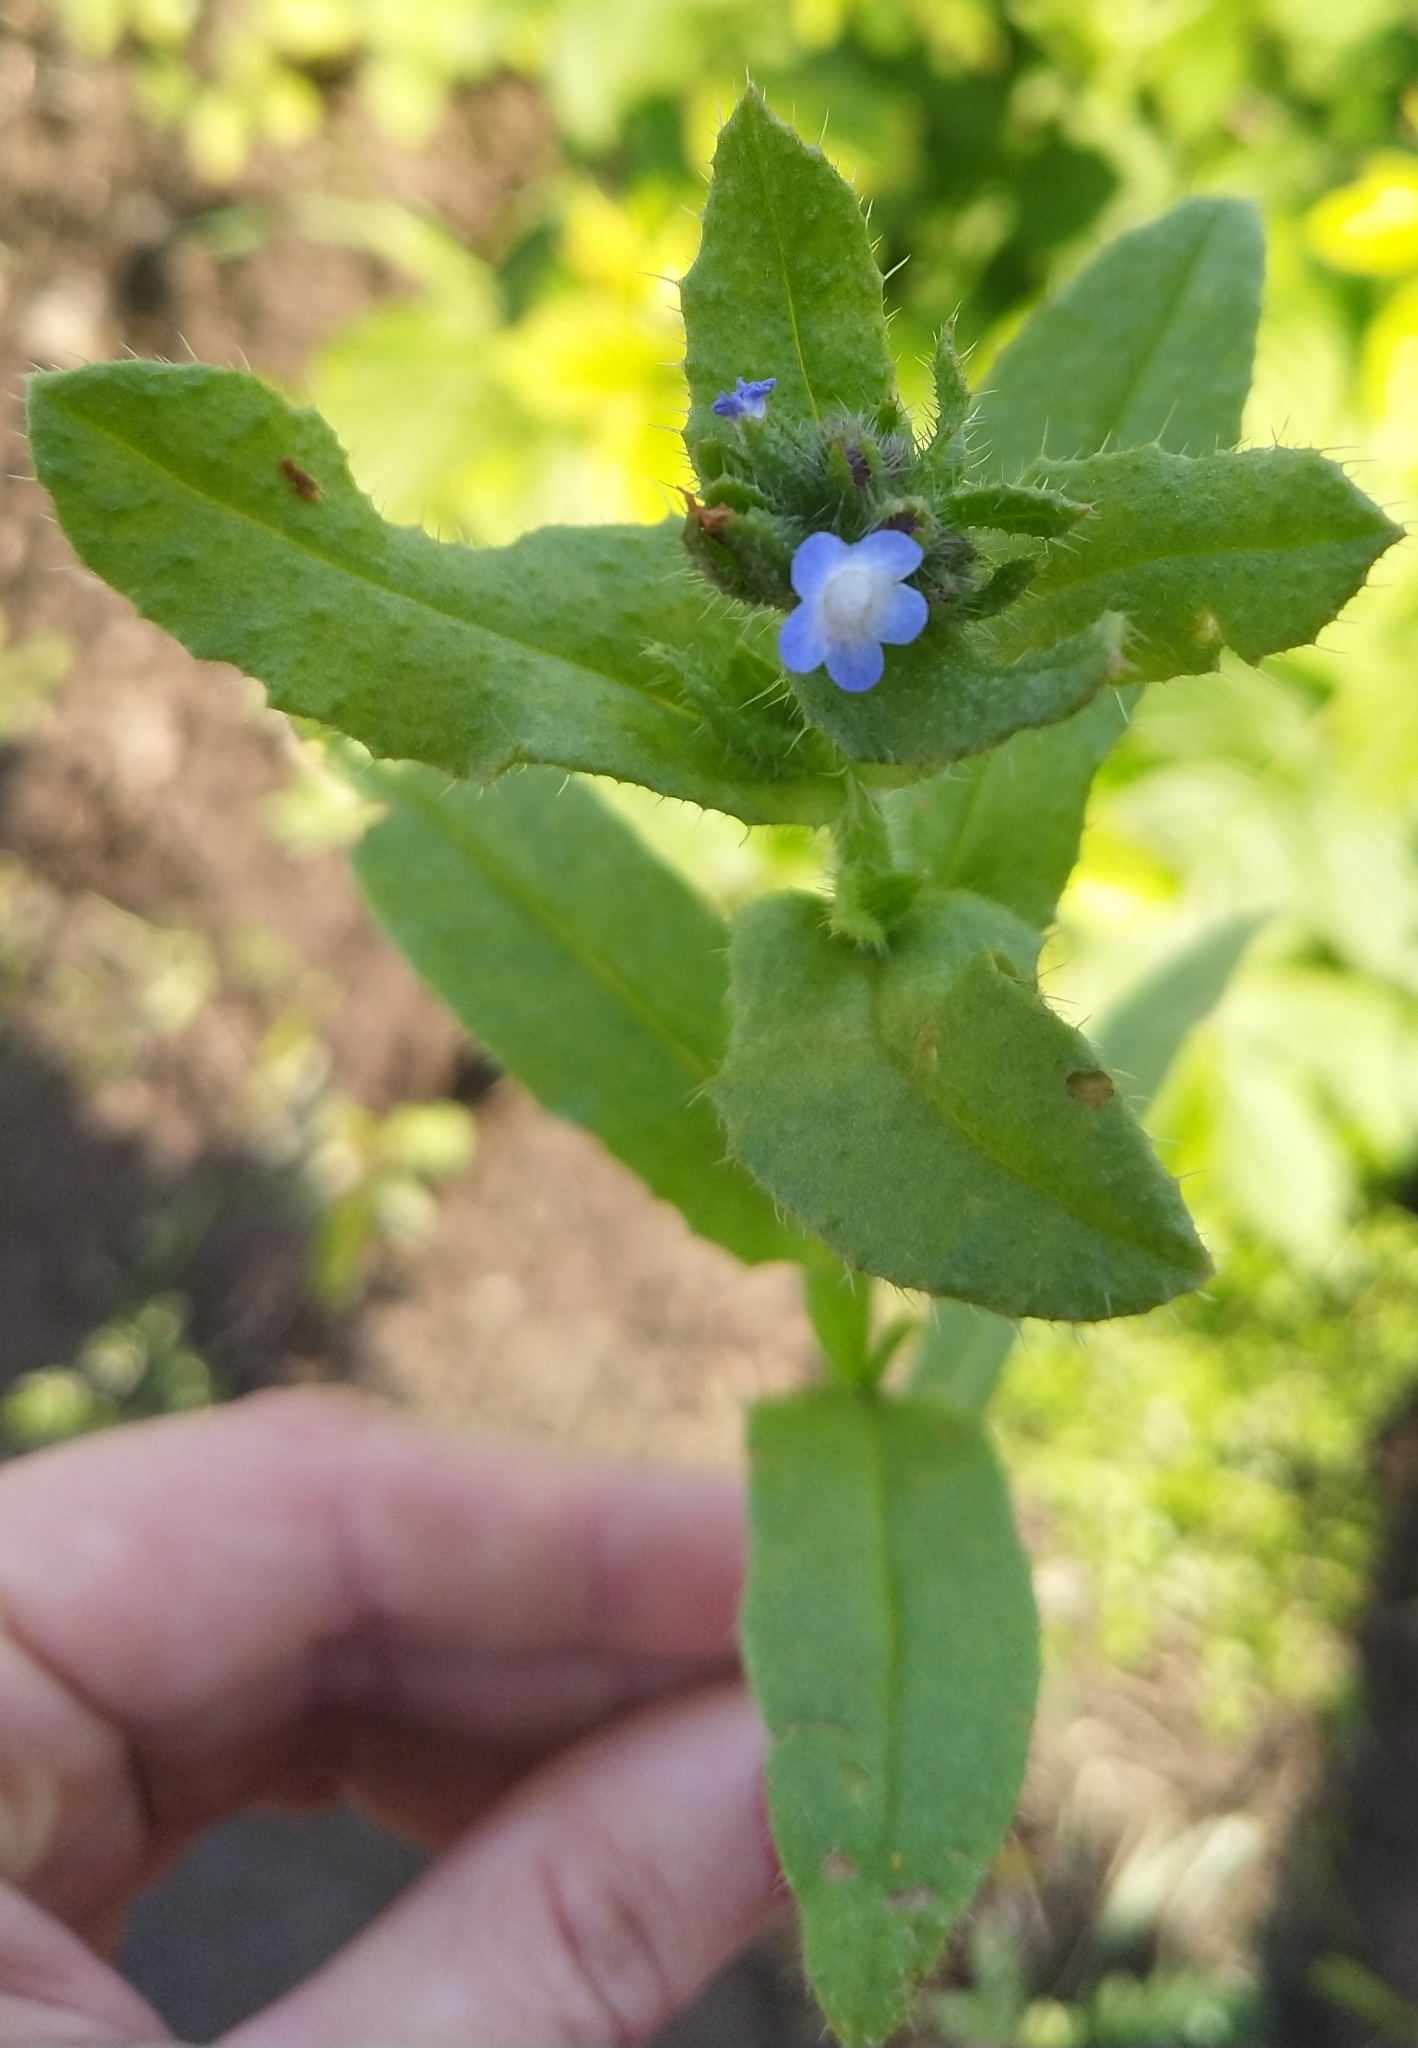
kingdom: Plantae
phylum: Tracheophyta
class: Magnoliopsida
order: Boraginales
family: Boraginaceae
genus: Lycopsis
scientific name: Lycopsis arvensis
